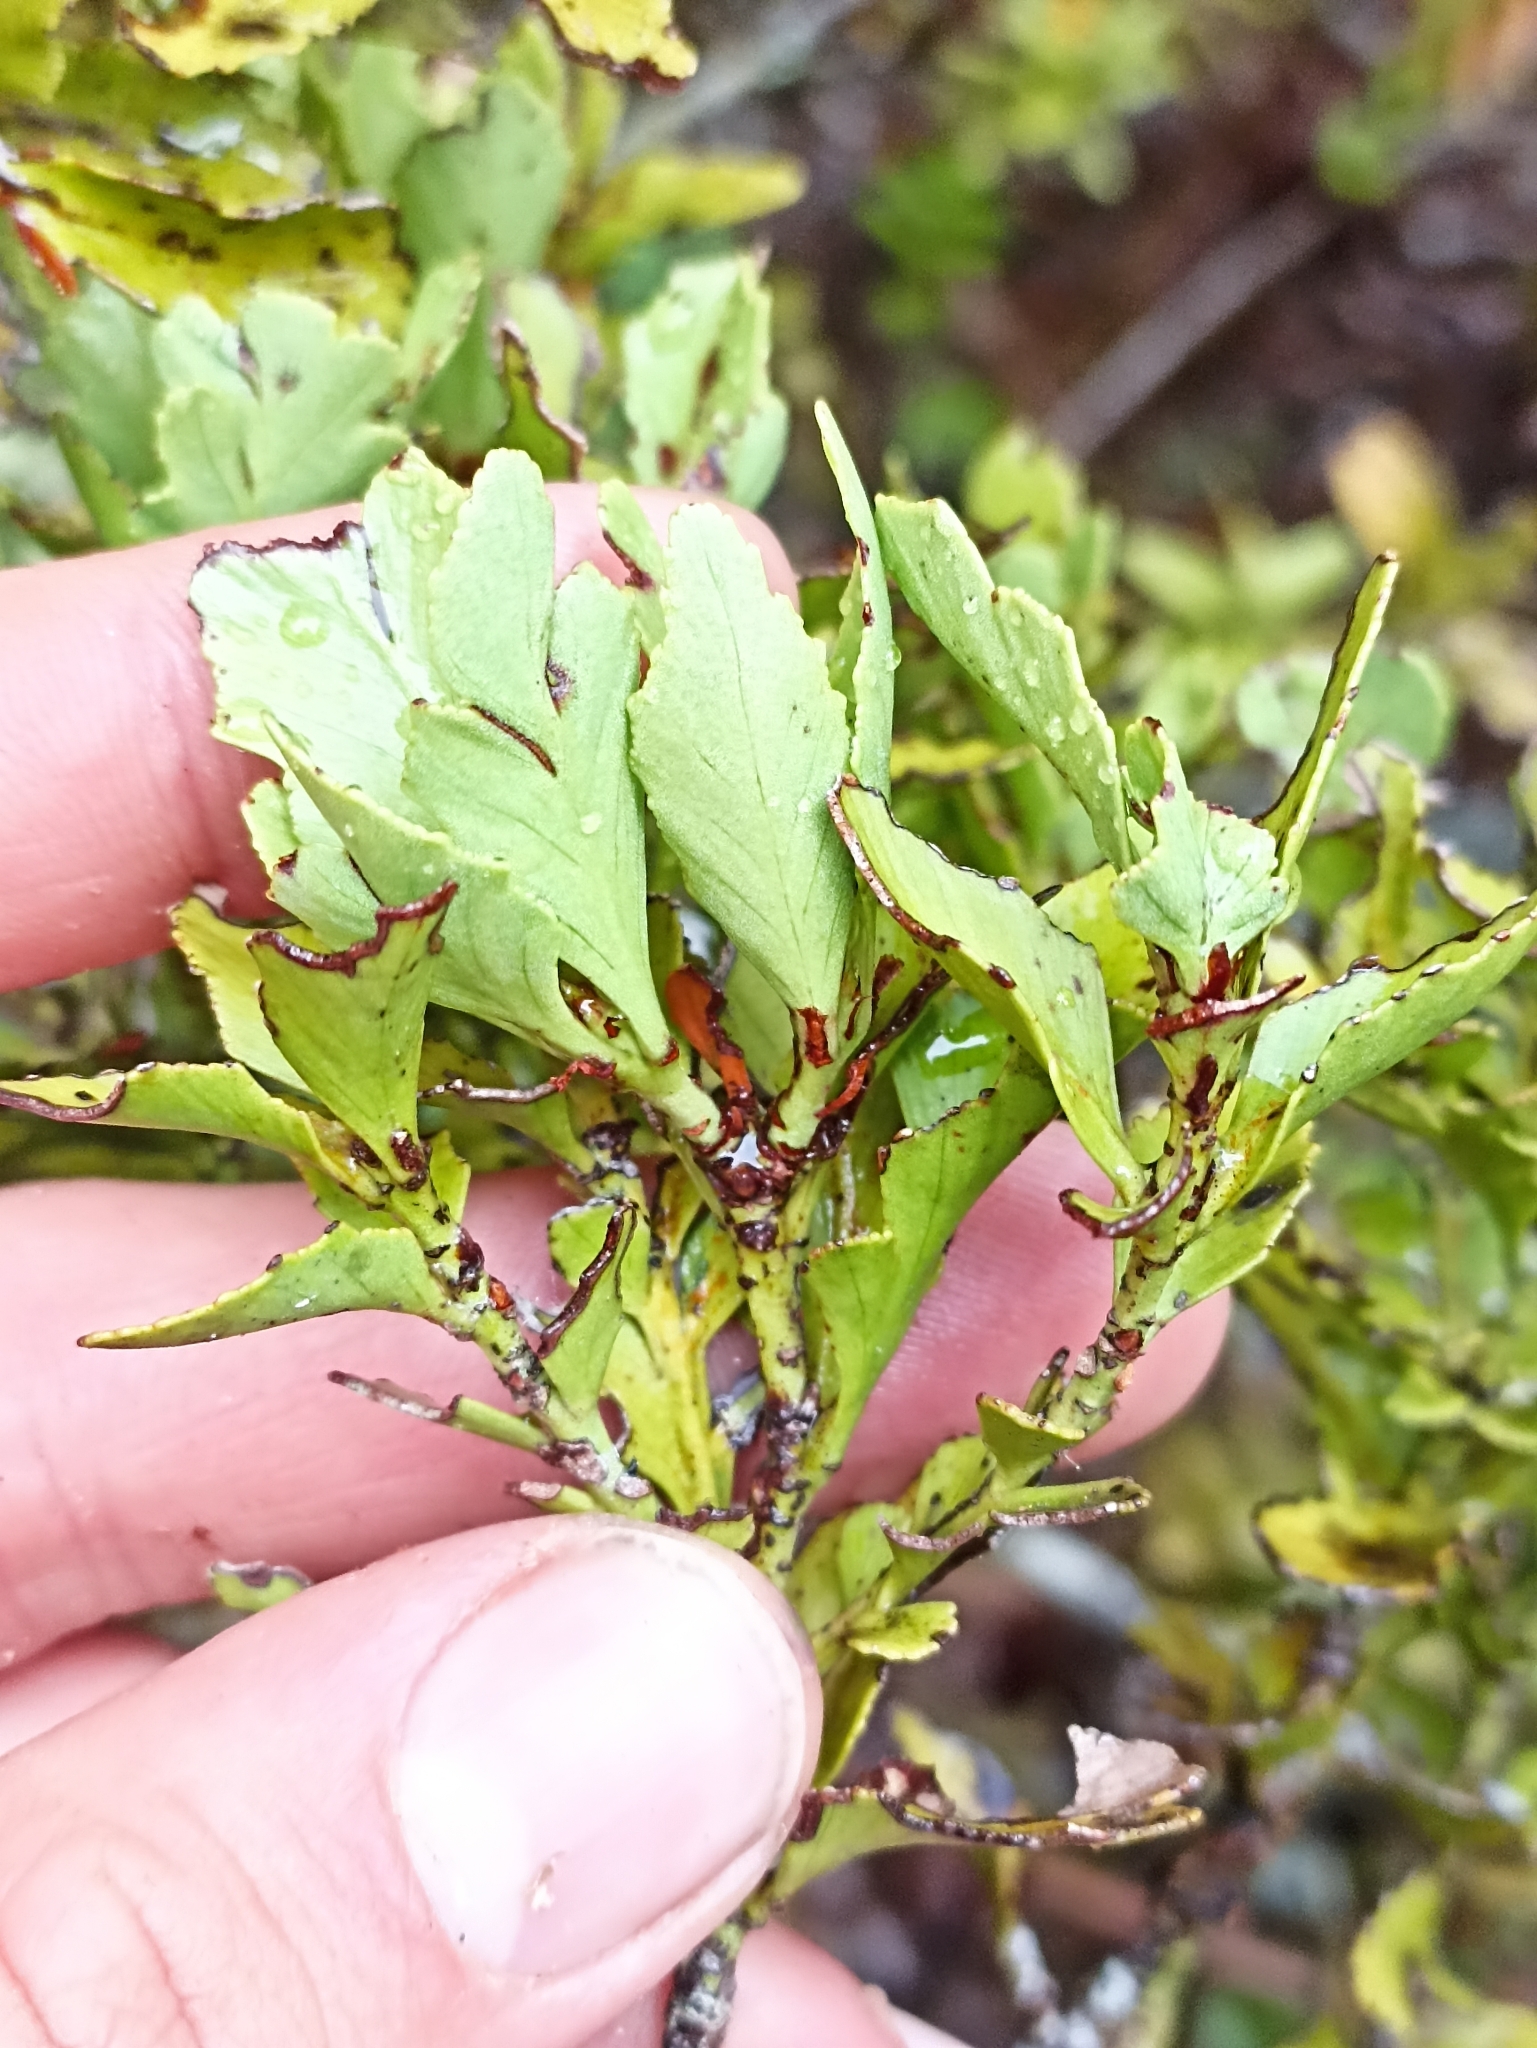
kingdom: Plantae
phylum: Tracheophyta
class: Pinopsida
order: Pinales
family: Phyllocladaceae
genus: Phyllocladus
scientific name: Phyllocladus trichomanoides
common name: Celery pine
